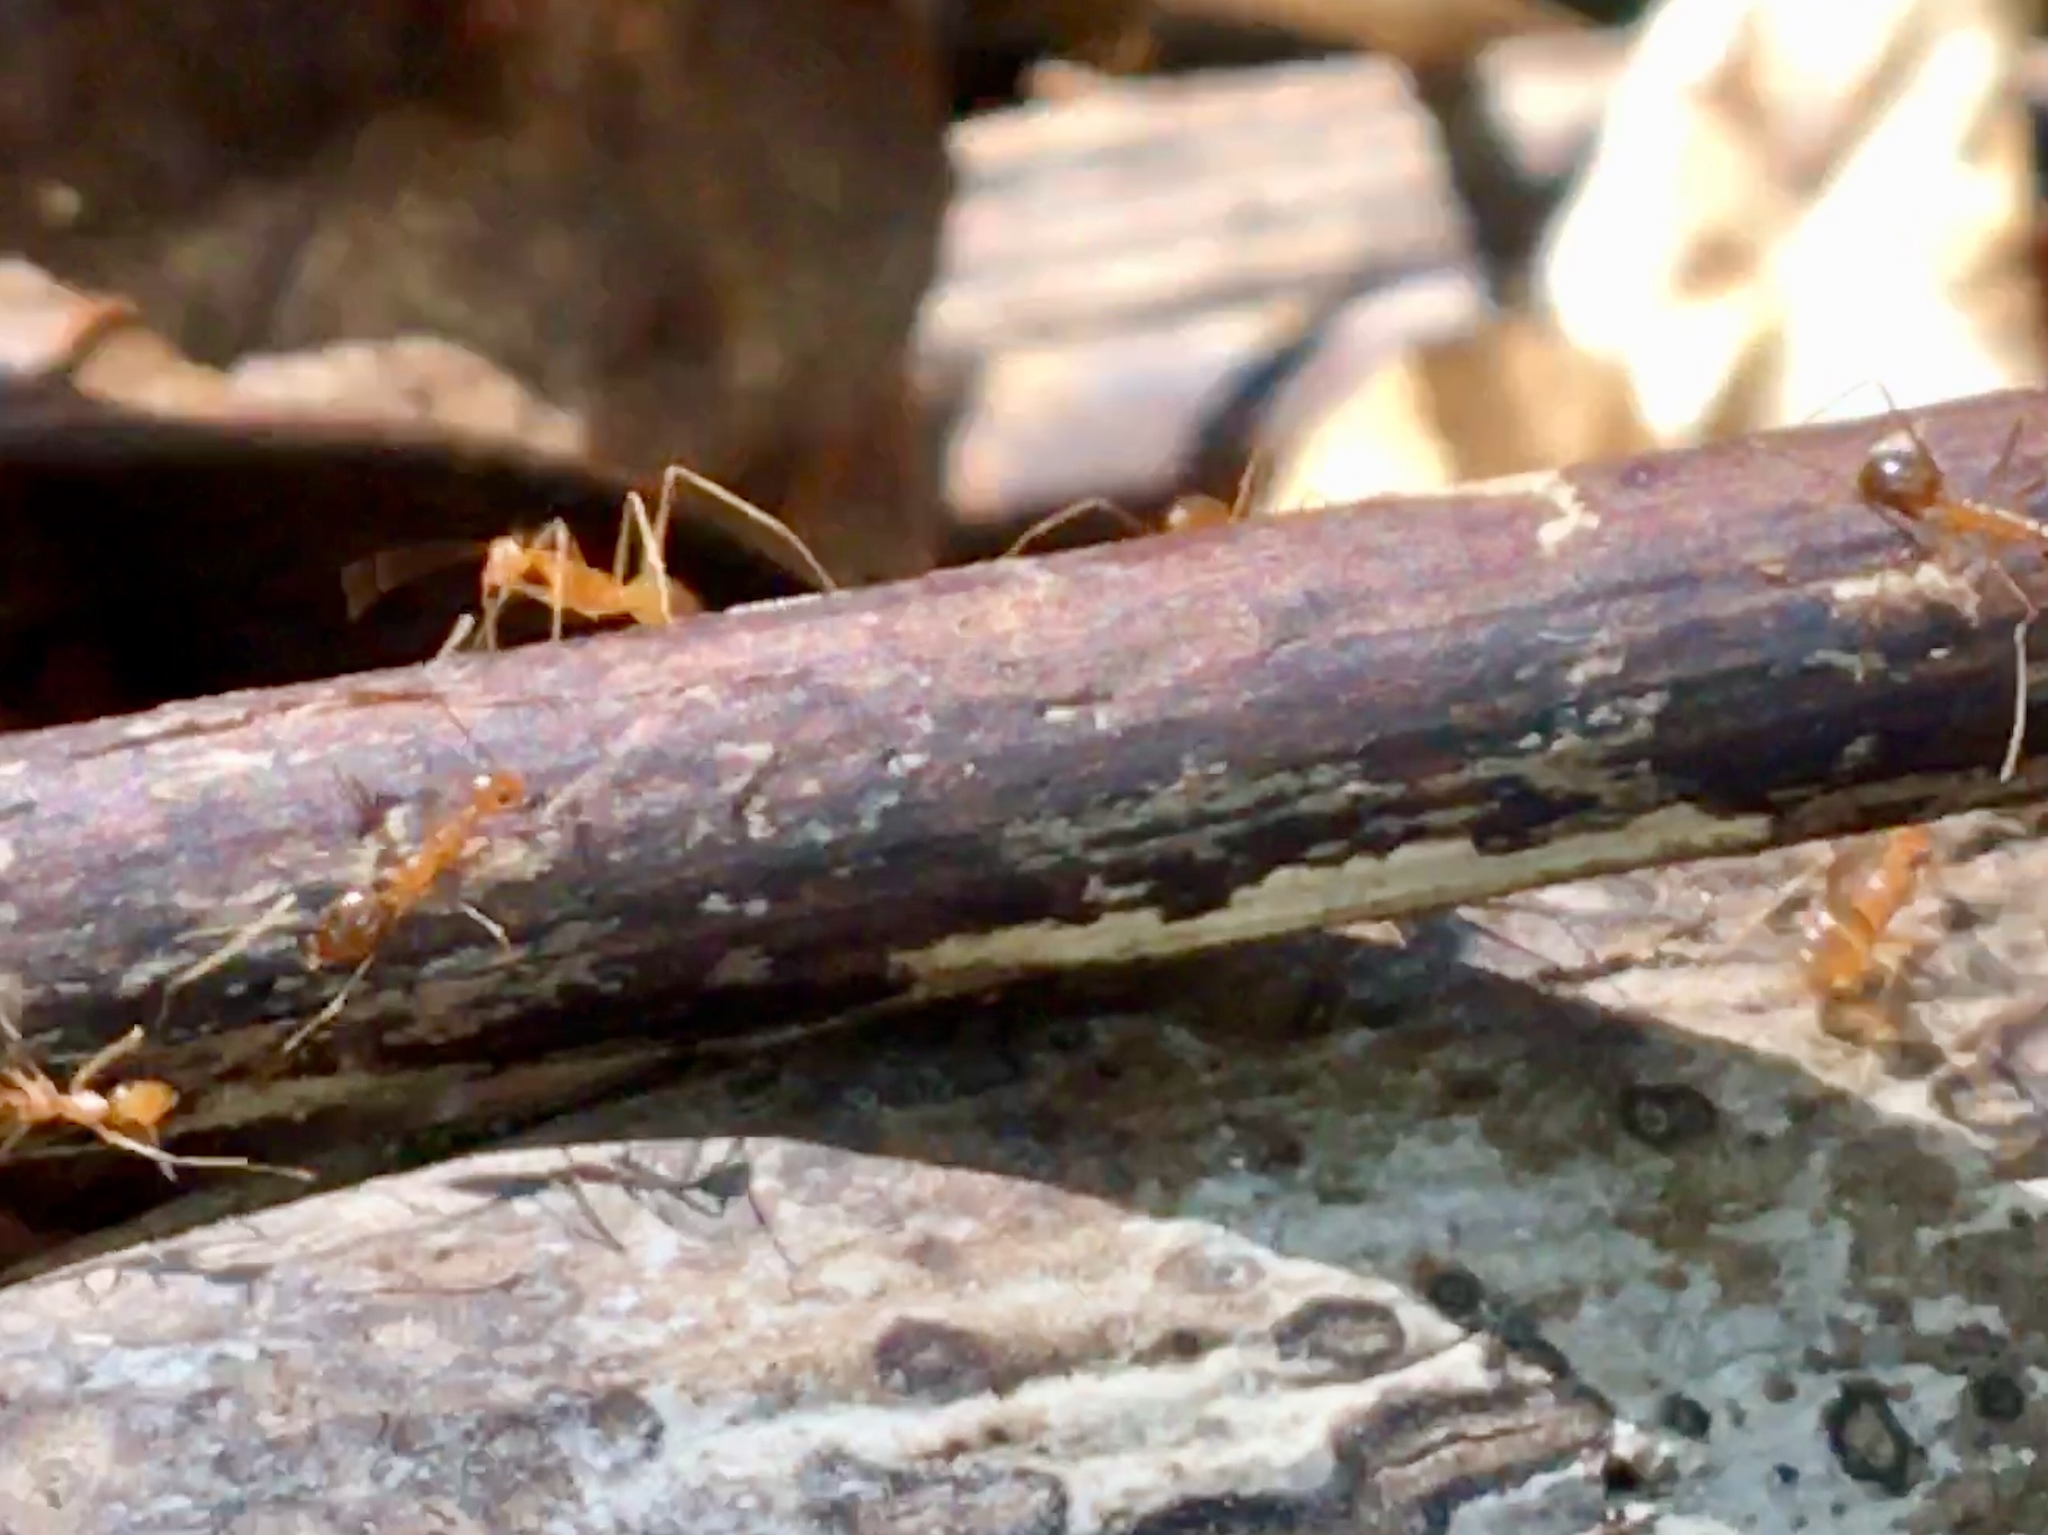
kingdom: Animalia
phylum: Arthropoda
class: Insecta
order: Hymenoptera
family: Formicidae
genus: Anoplolepis
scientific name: Anoplolepis gracilipes
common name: Ant
